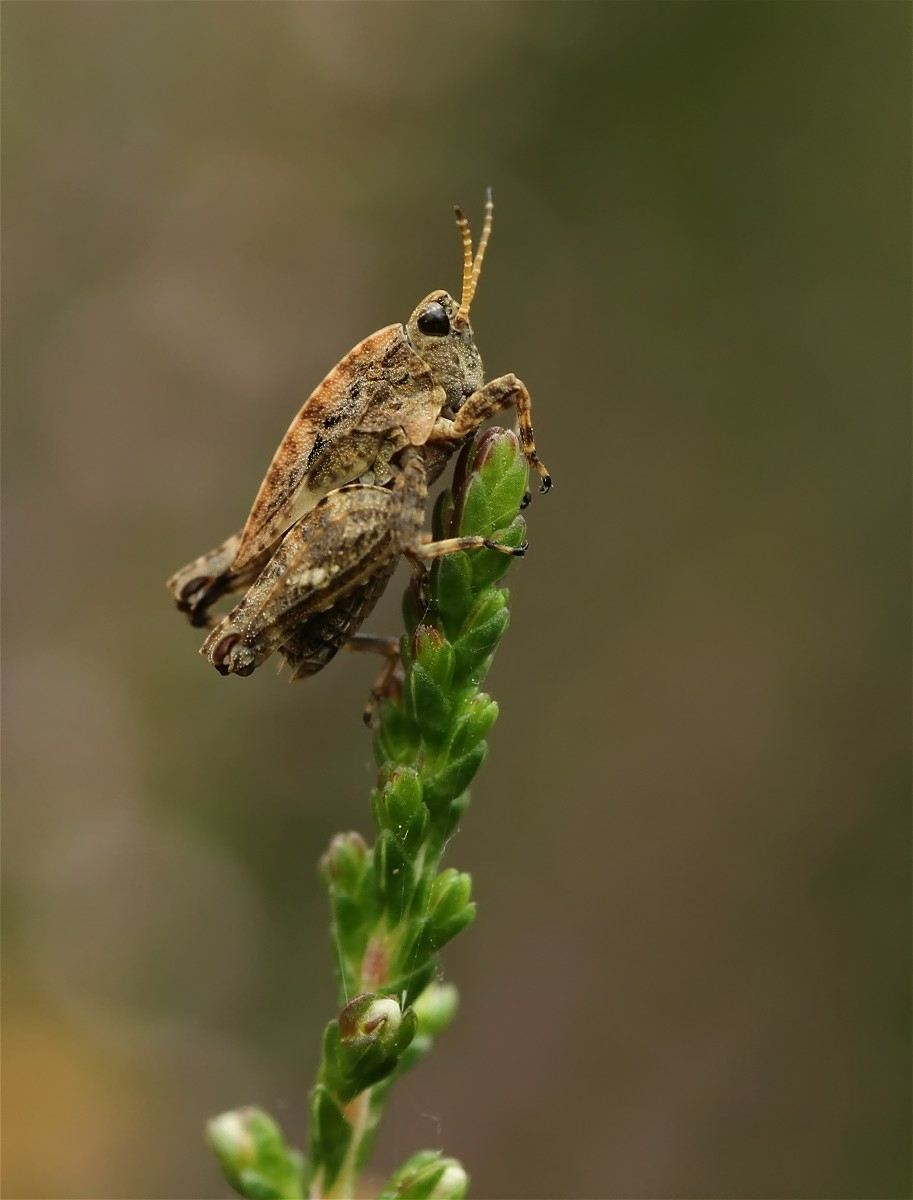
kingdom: Animalia
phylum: Arthropoda
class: Insecta
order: Orthoptera
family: Tetrigidae
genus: Tetrix
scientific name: Tetrix undulata
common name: Common groundhopper
